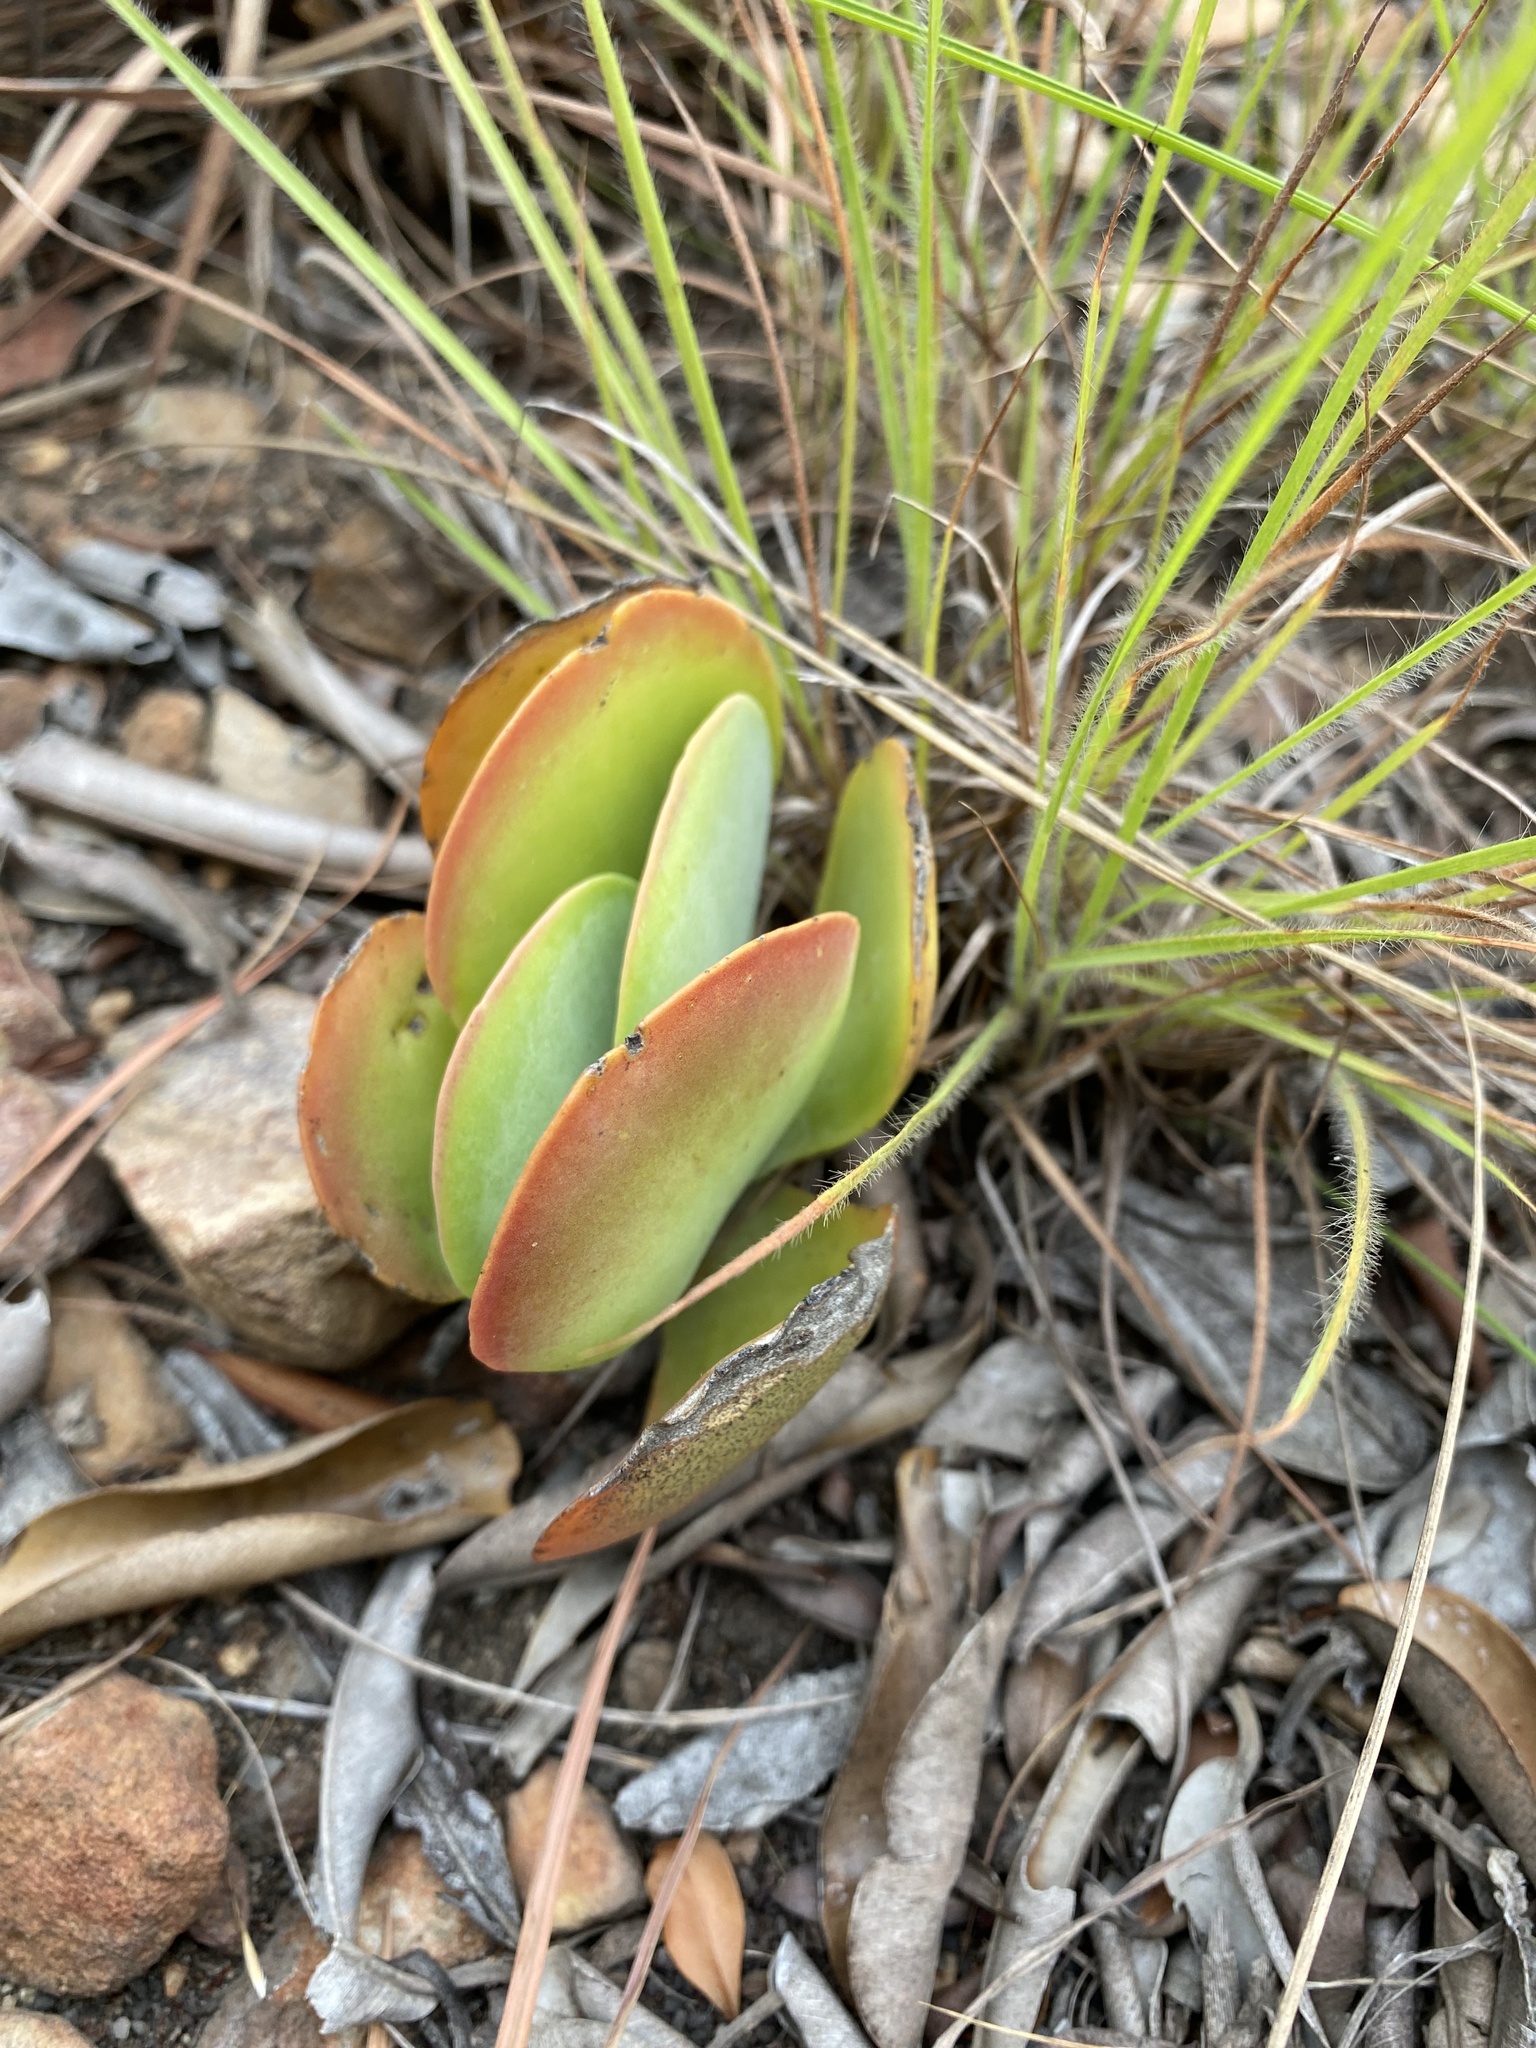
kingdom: Plantae
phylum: Tracheophyta
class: Magnoliopsida
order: Saxifragales
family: Crassulaceae
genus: Kalanchoe
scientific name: Kalanchoe thyrsiflora
